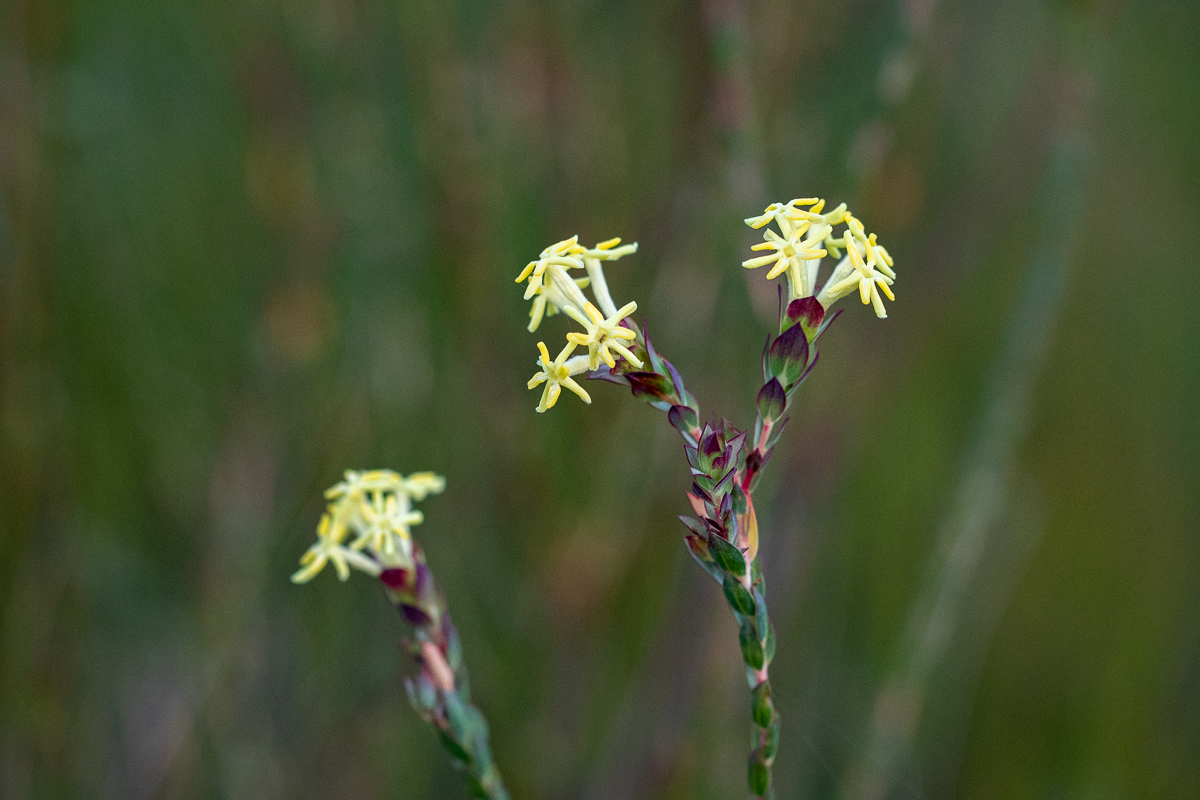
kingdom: Plantae
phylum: Tracheophyta
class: Magnoliopsida
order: Malvales
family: Thymelaeaceae
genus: Gnidia
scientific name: Gnidia oppositifolia
